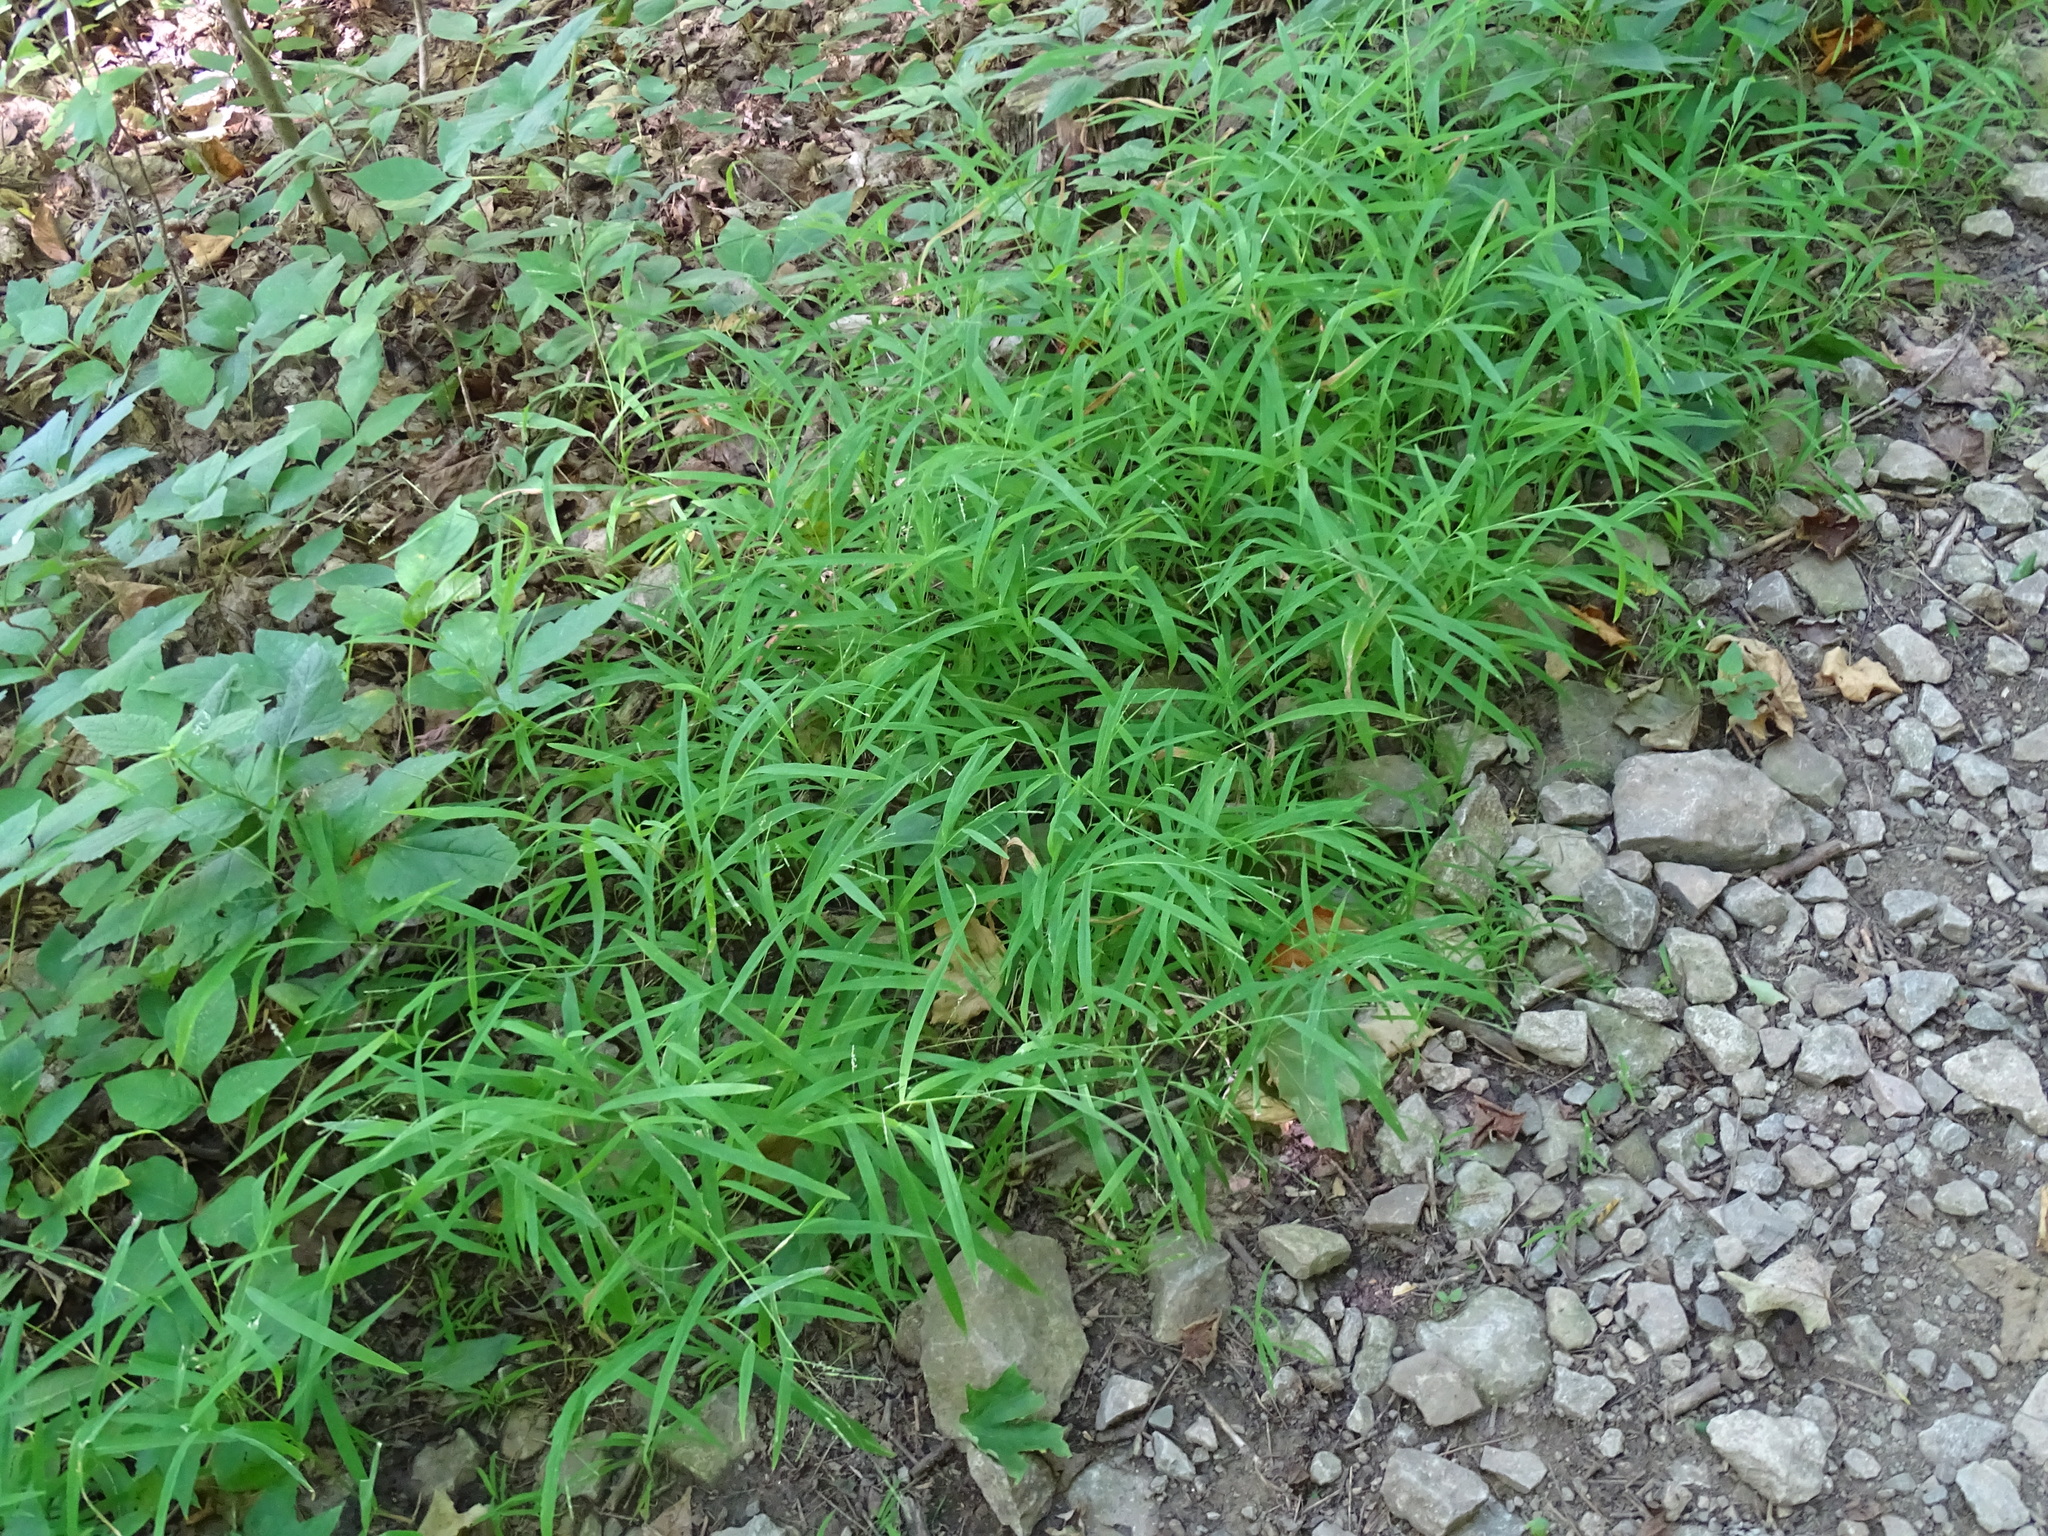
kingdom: Plantae
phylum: Tracheophyta
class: Liliopsida
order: Poales
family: Poaceae
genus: Leersia
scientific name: Leersia virginica
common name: White cutgrass
